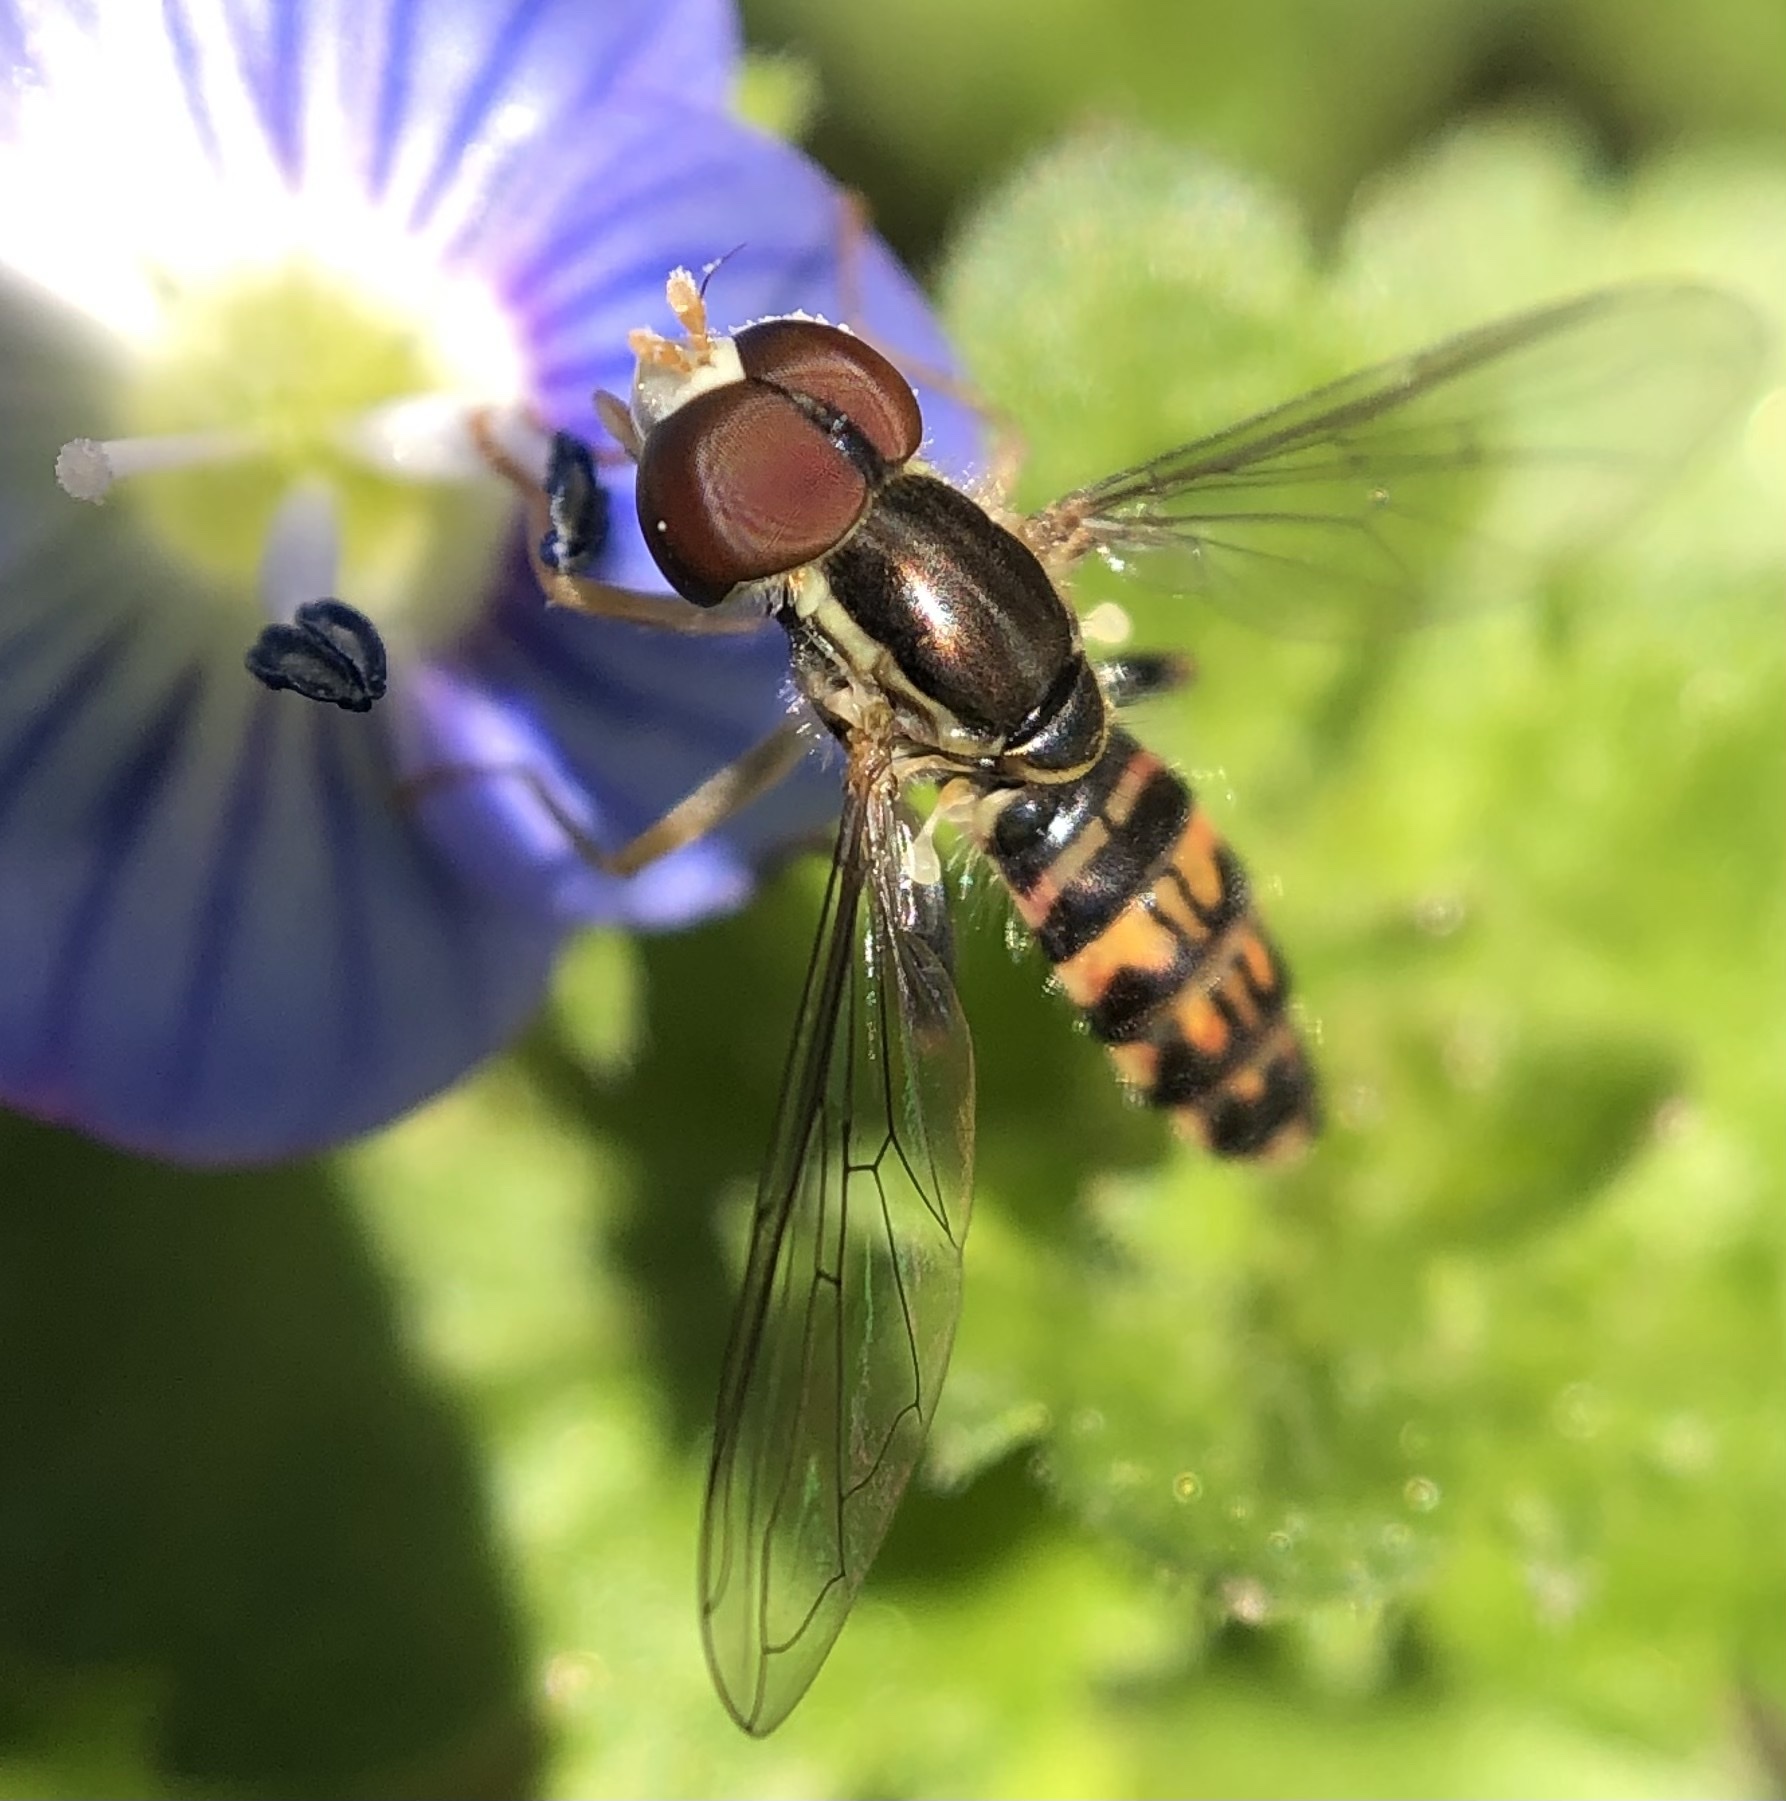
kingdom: Animalia
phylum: Arthropoda
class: Insecta
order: Diptera
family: Syrphidae
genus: Toxomerus
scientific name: Toxomerus geminatus
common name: Eastern calligrapher
